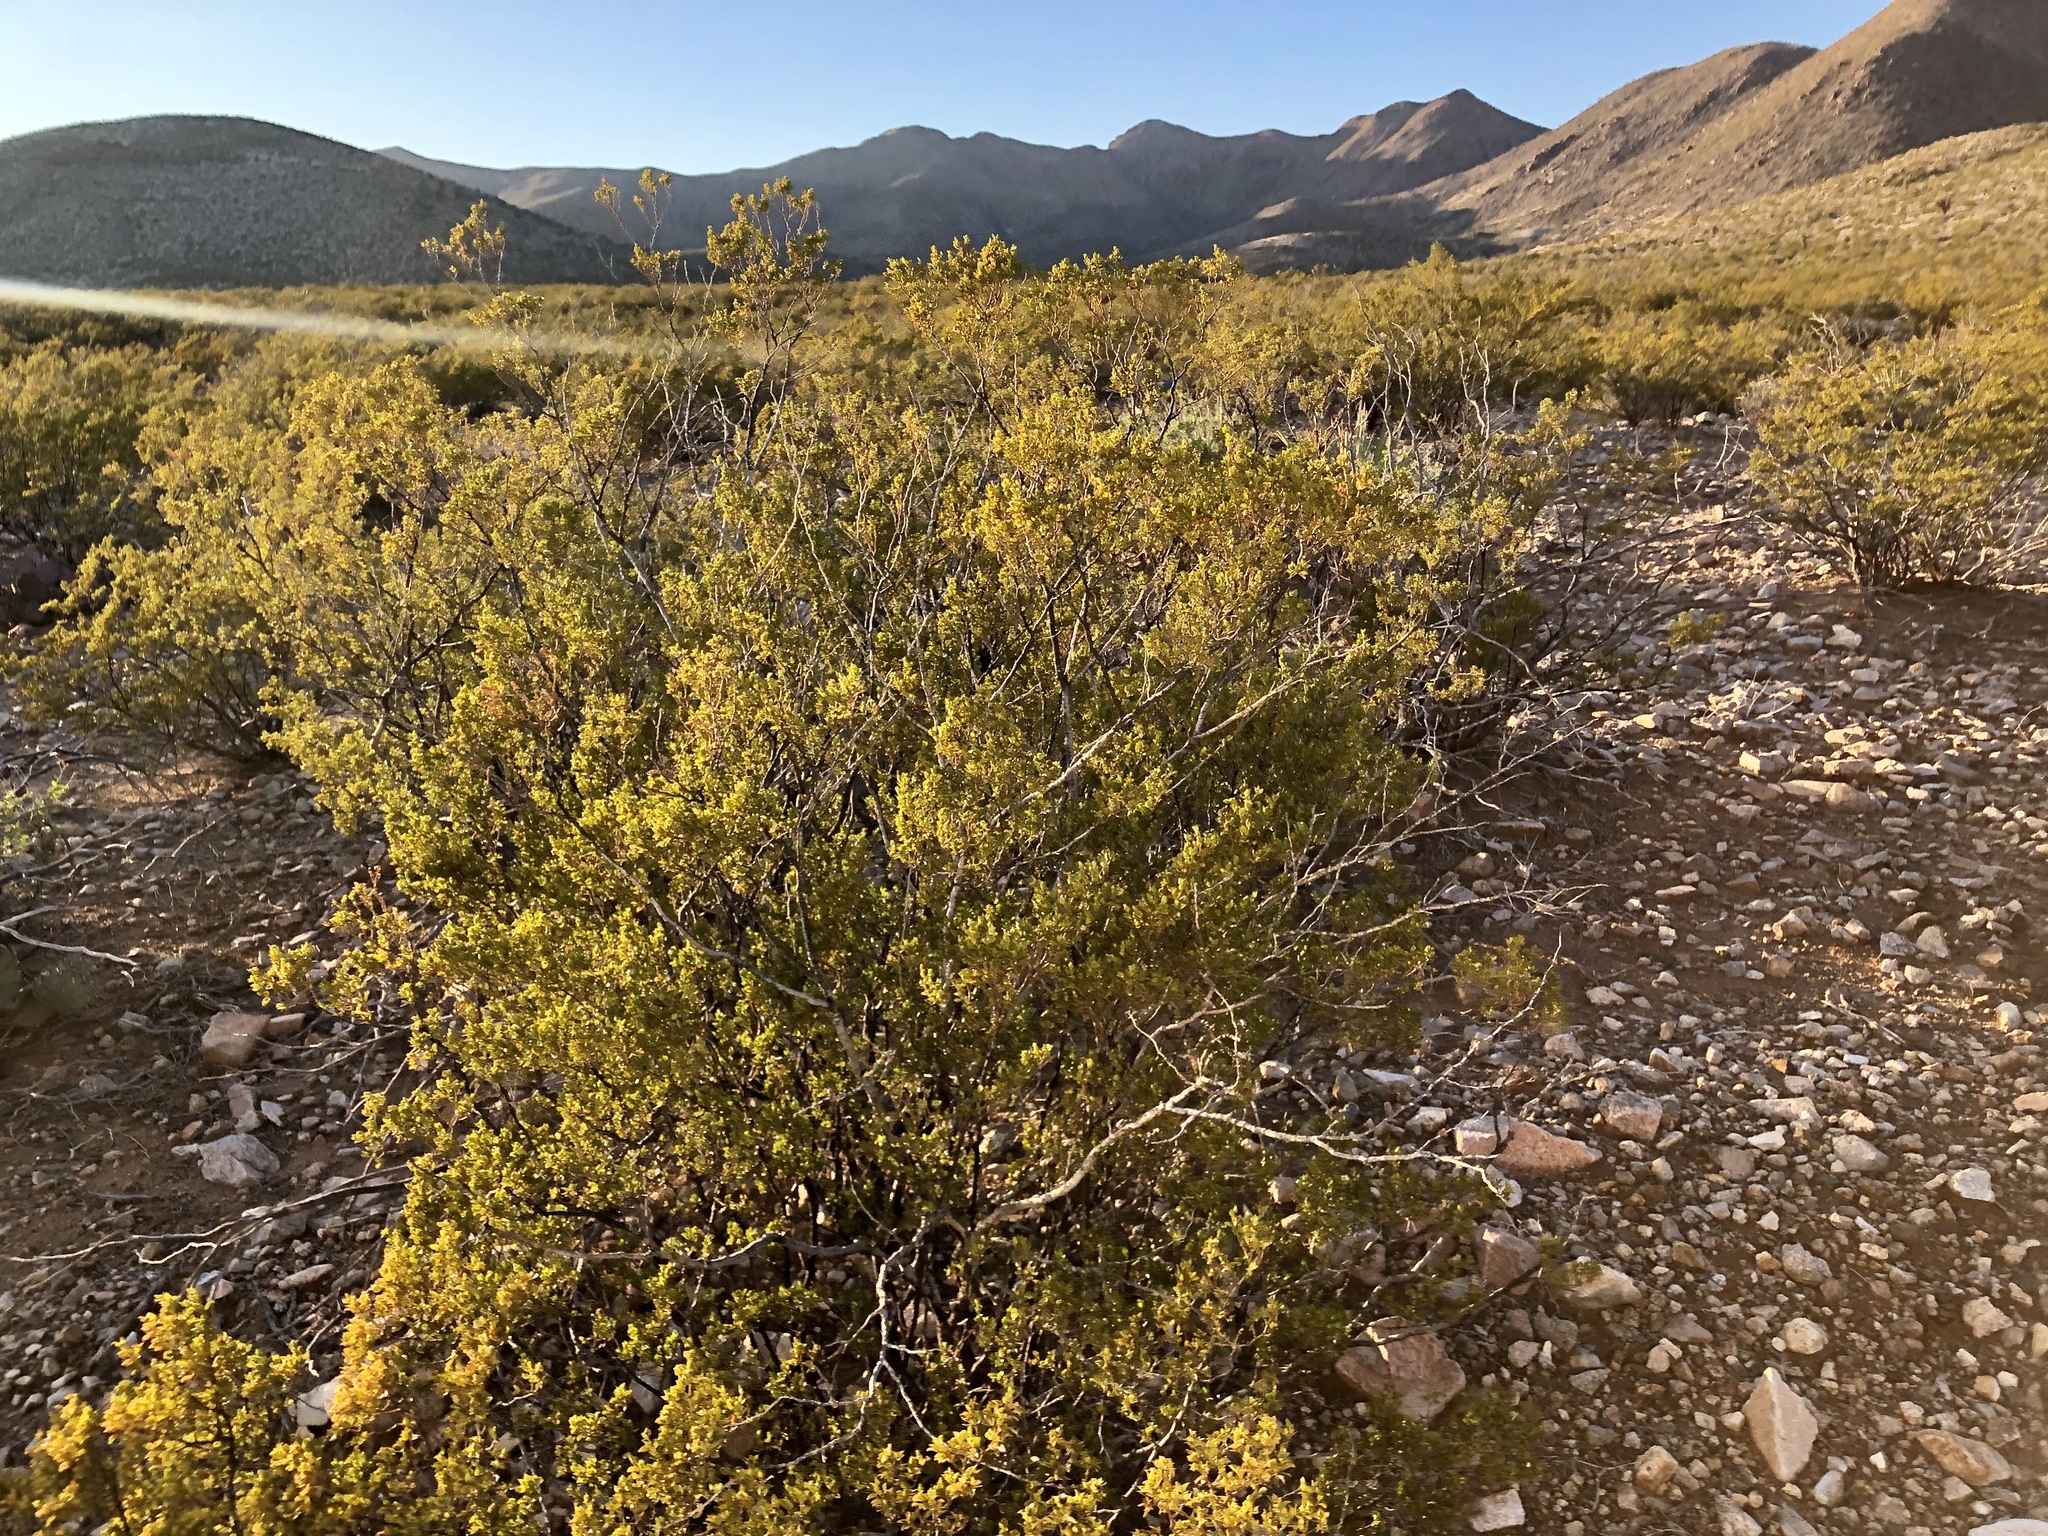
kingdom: Plantae
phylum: Tracheophyta
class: Magnoliopsida
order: Zygophyllales
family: Zygophyllaceae
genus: Larrea
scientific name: Larrea tridentata
